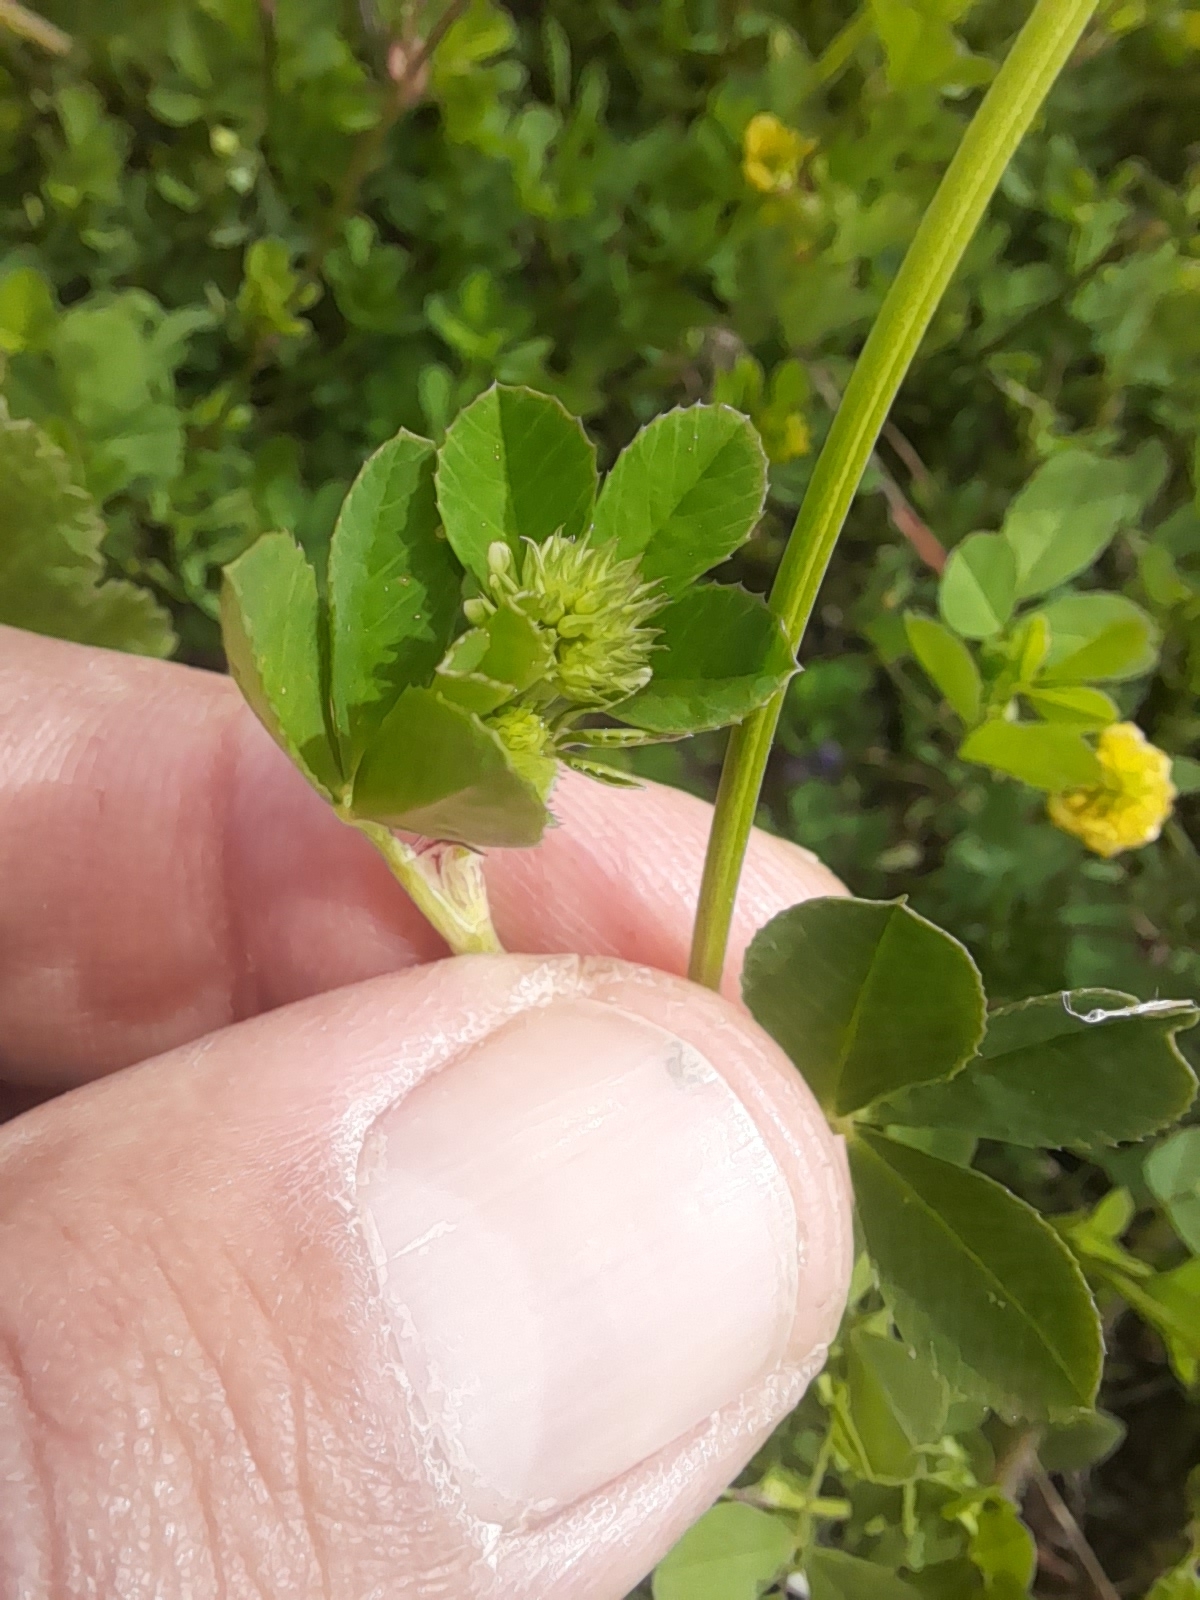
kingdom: Plantae
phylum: Tracheophyta
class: Magnoliopsida
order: Fabales
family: Fabaceae
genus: Trifolium
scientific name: Trifolium nigrescens
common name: Small white clover
